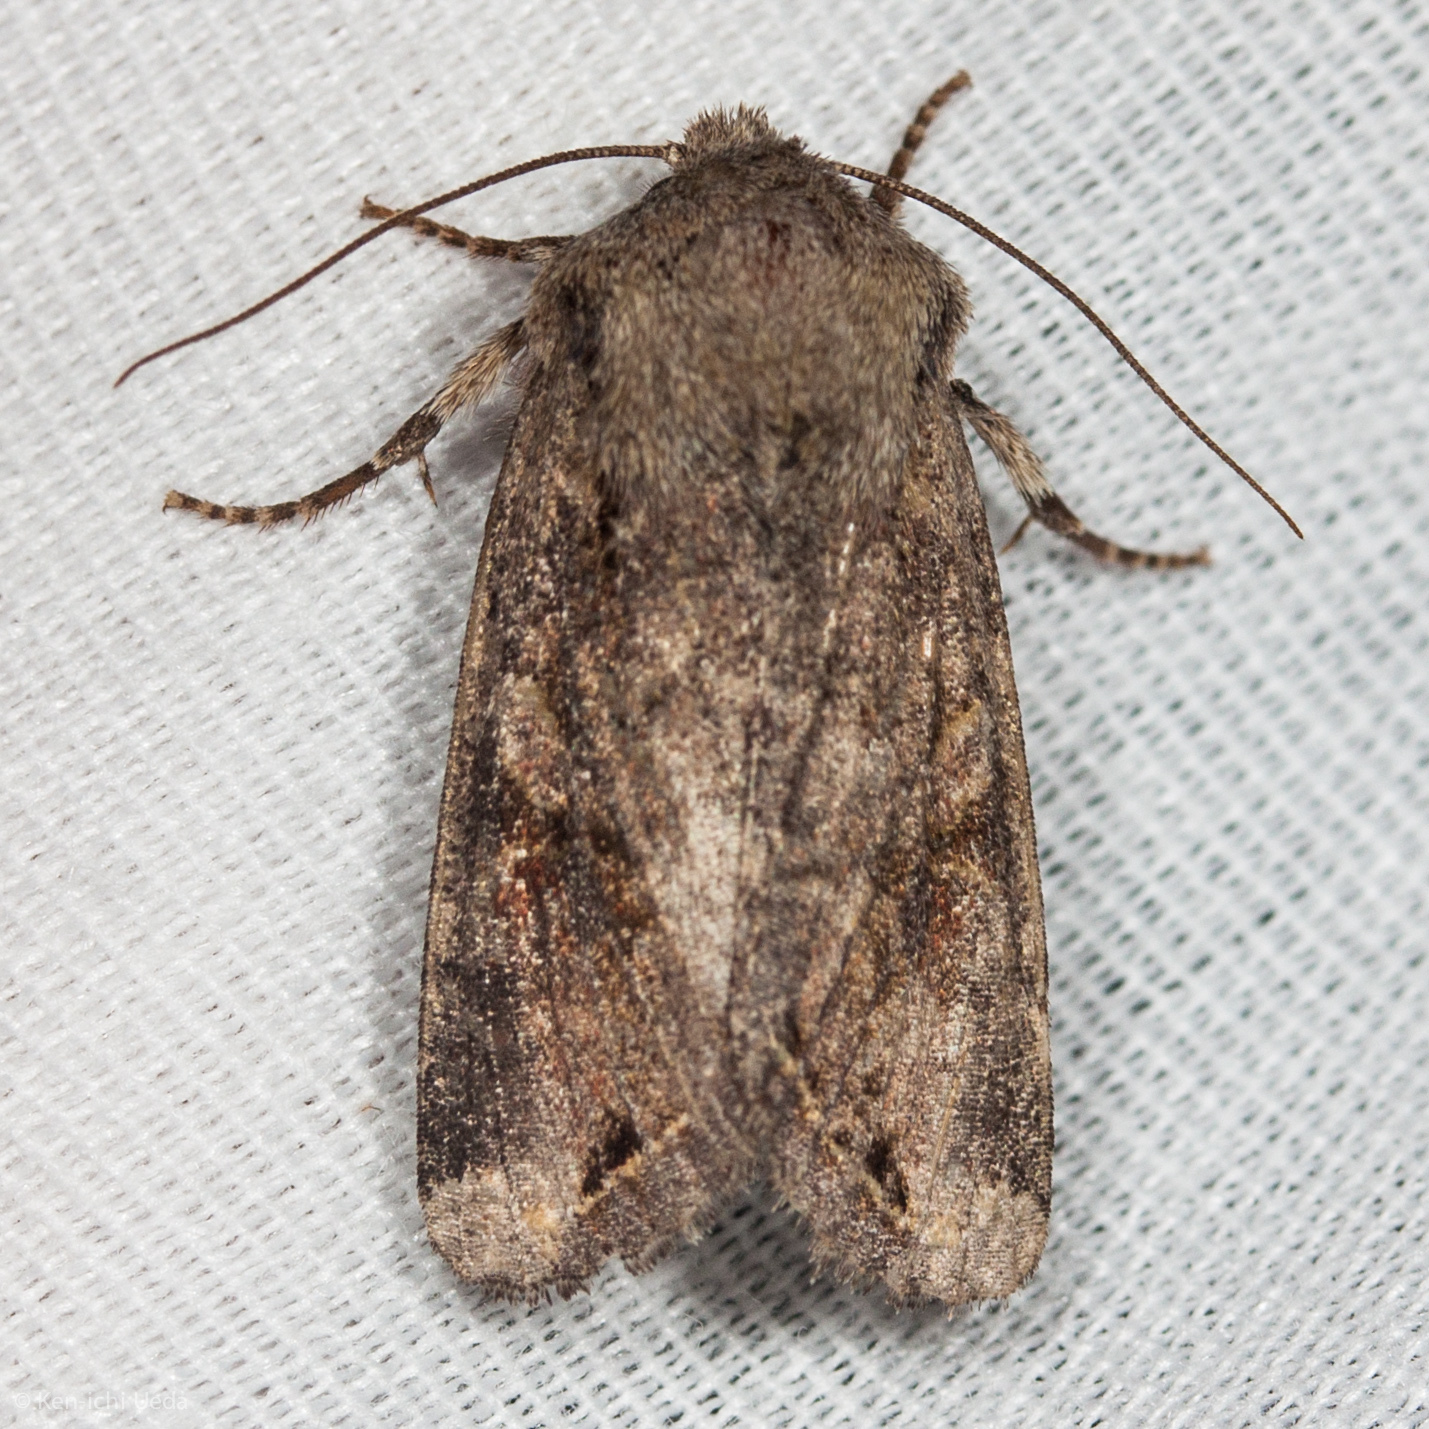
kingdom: Animalia
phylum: Arthropoda
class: Insecta
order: Lepidoptera
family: Noctuidae
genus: Egira
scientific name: Egira rubrica
